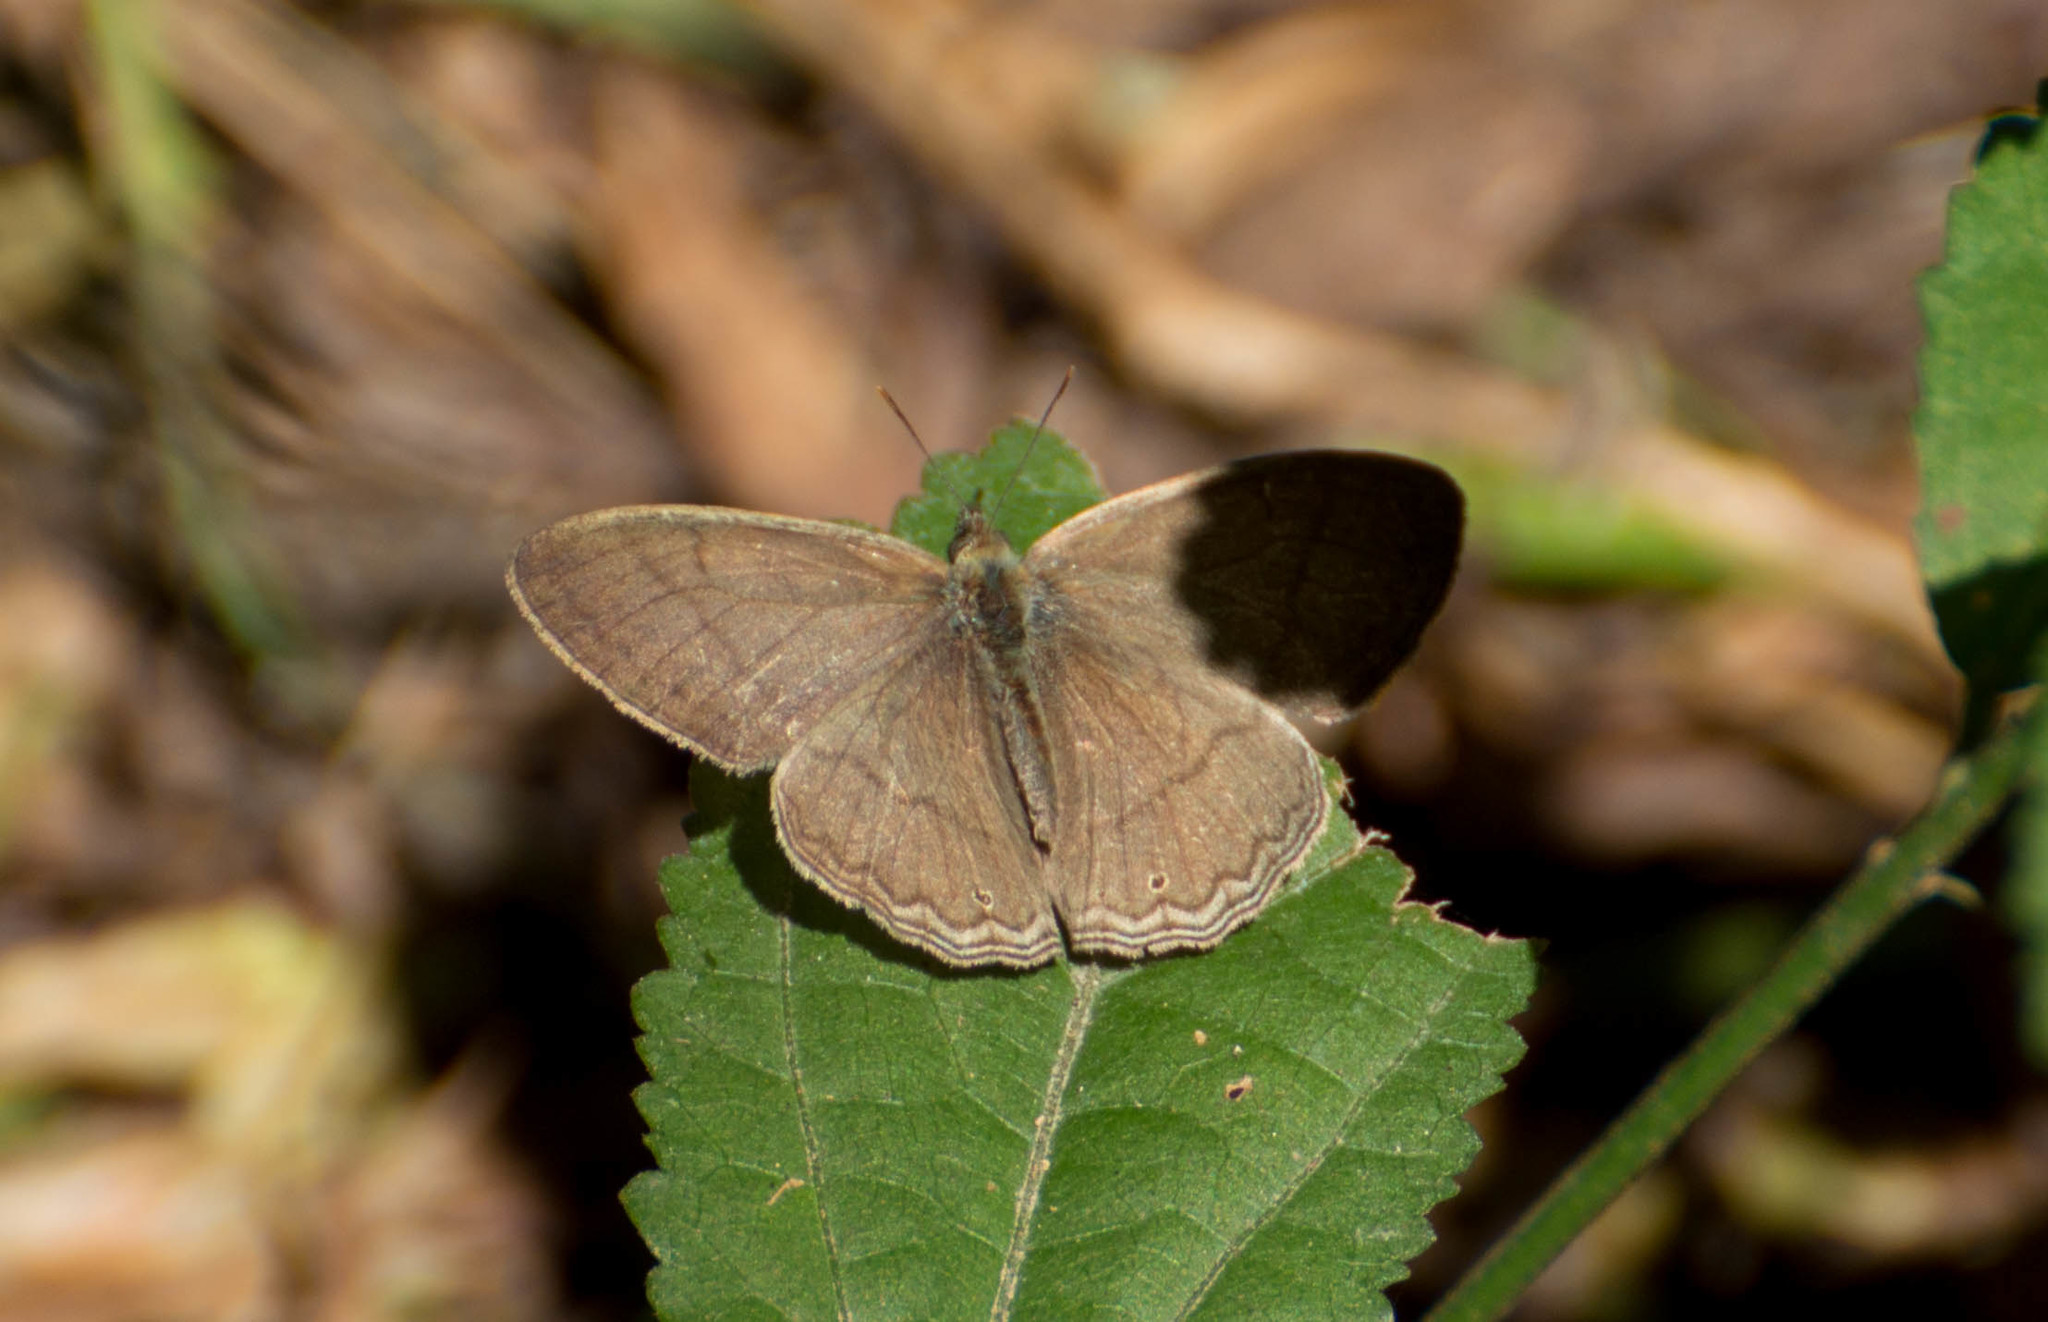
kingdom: Animalia
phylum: Arthropoda
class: Insecta
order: Lepidoptera
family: Nymphalidae
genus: Paryphthimoides
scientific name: Paryphthimoides poltys
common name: Poltys satyr
